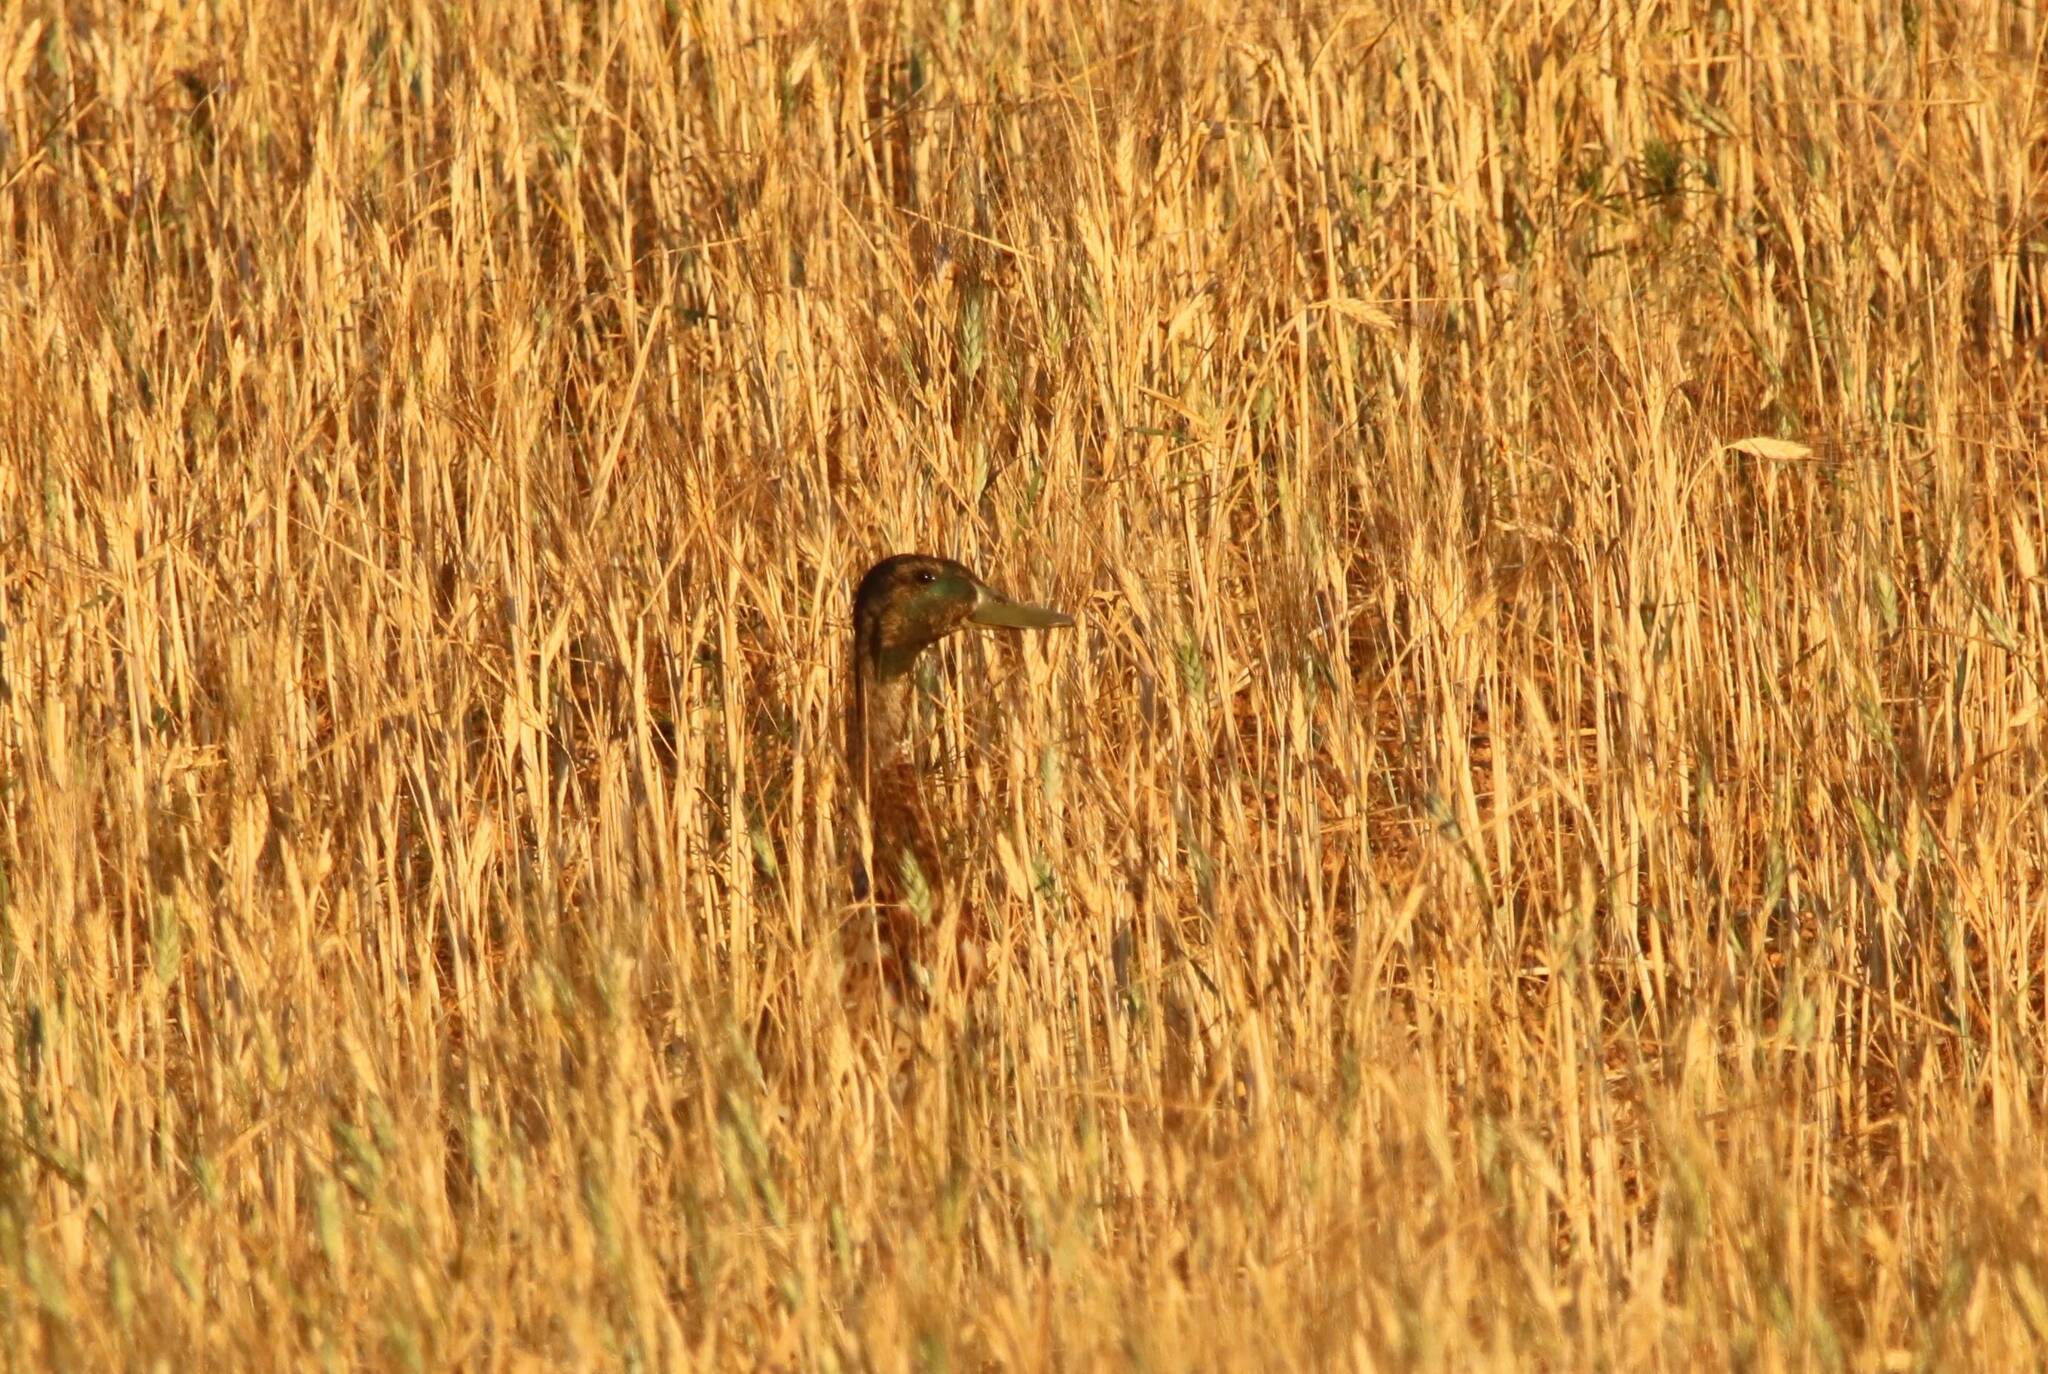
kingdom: Animalia
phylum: Chordata
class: Aves
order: Anseriformes
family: Anatidae
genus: Anas
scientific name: Anas platyrhynchos
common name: Mallard
